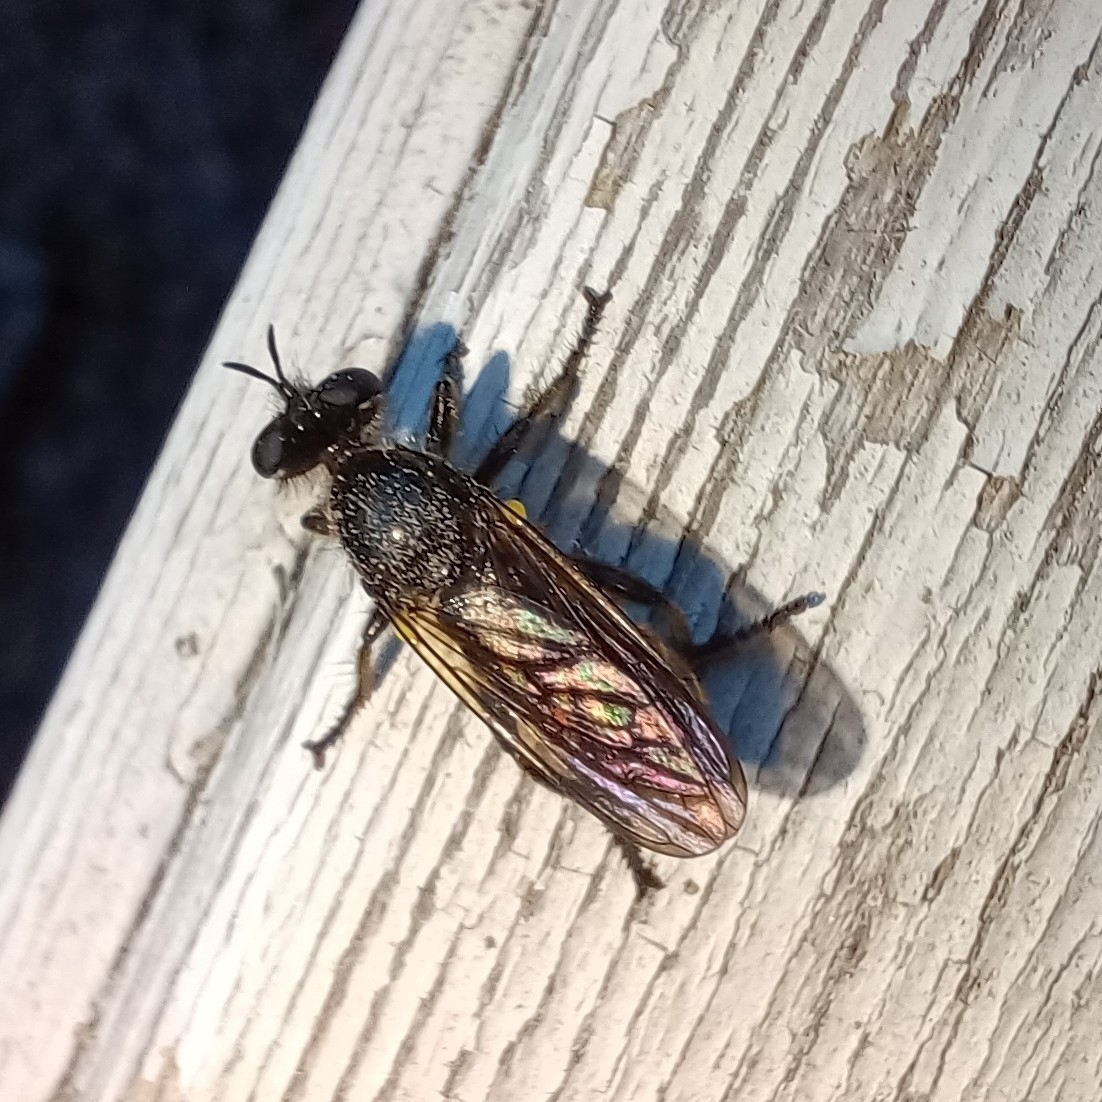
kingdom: Animalia
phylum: Arthropoda
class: Insecta
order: Diptera
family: Asilidae
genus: Lamyra
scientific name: Lamyra marginata
